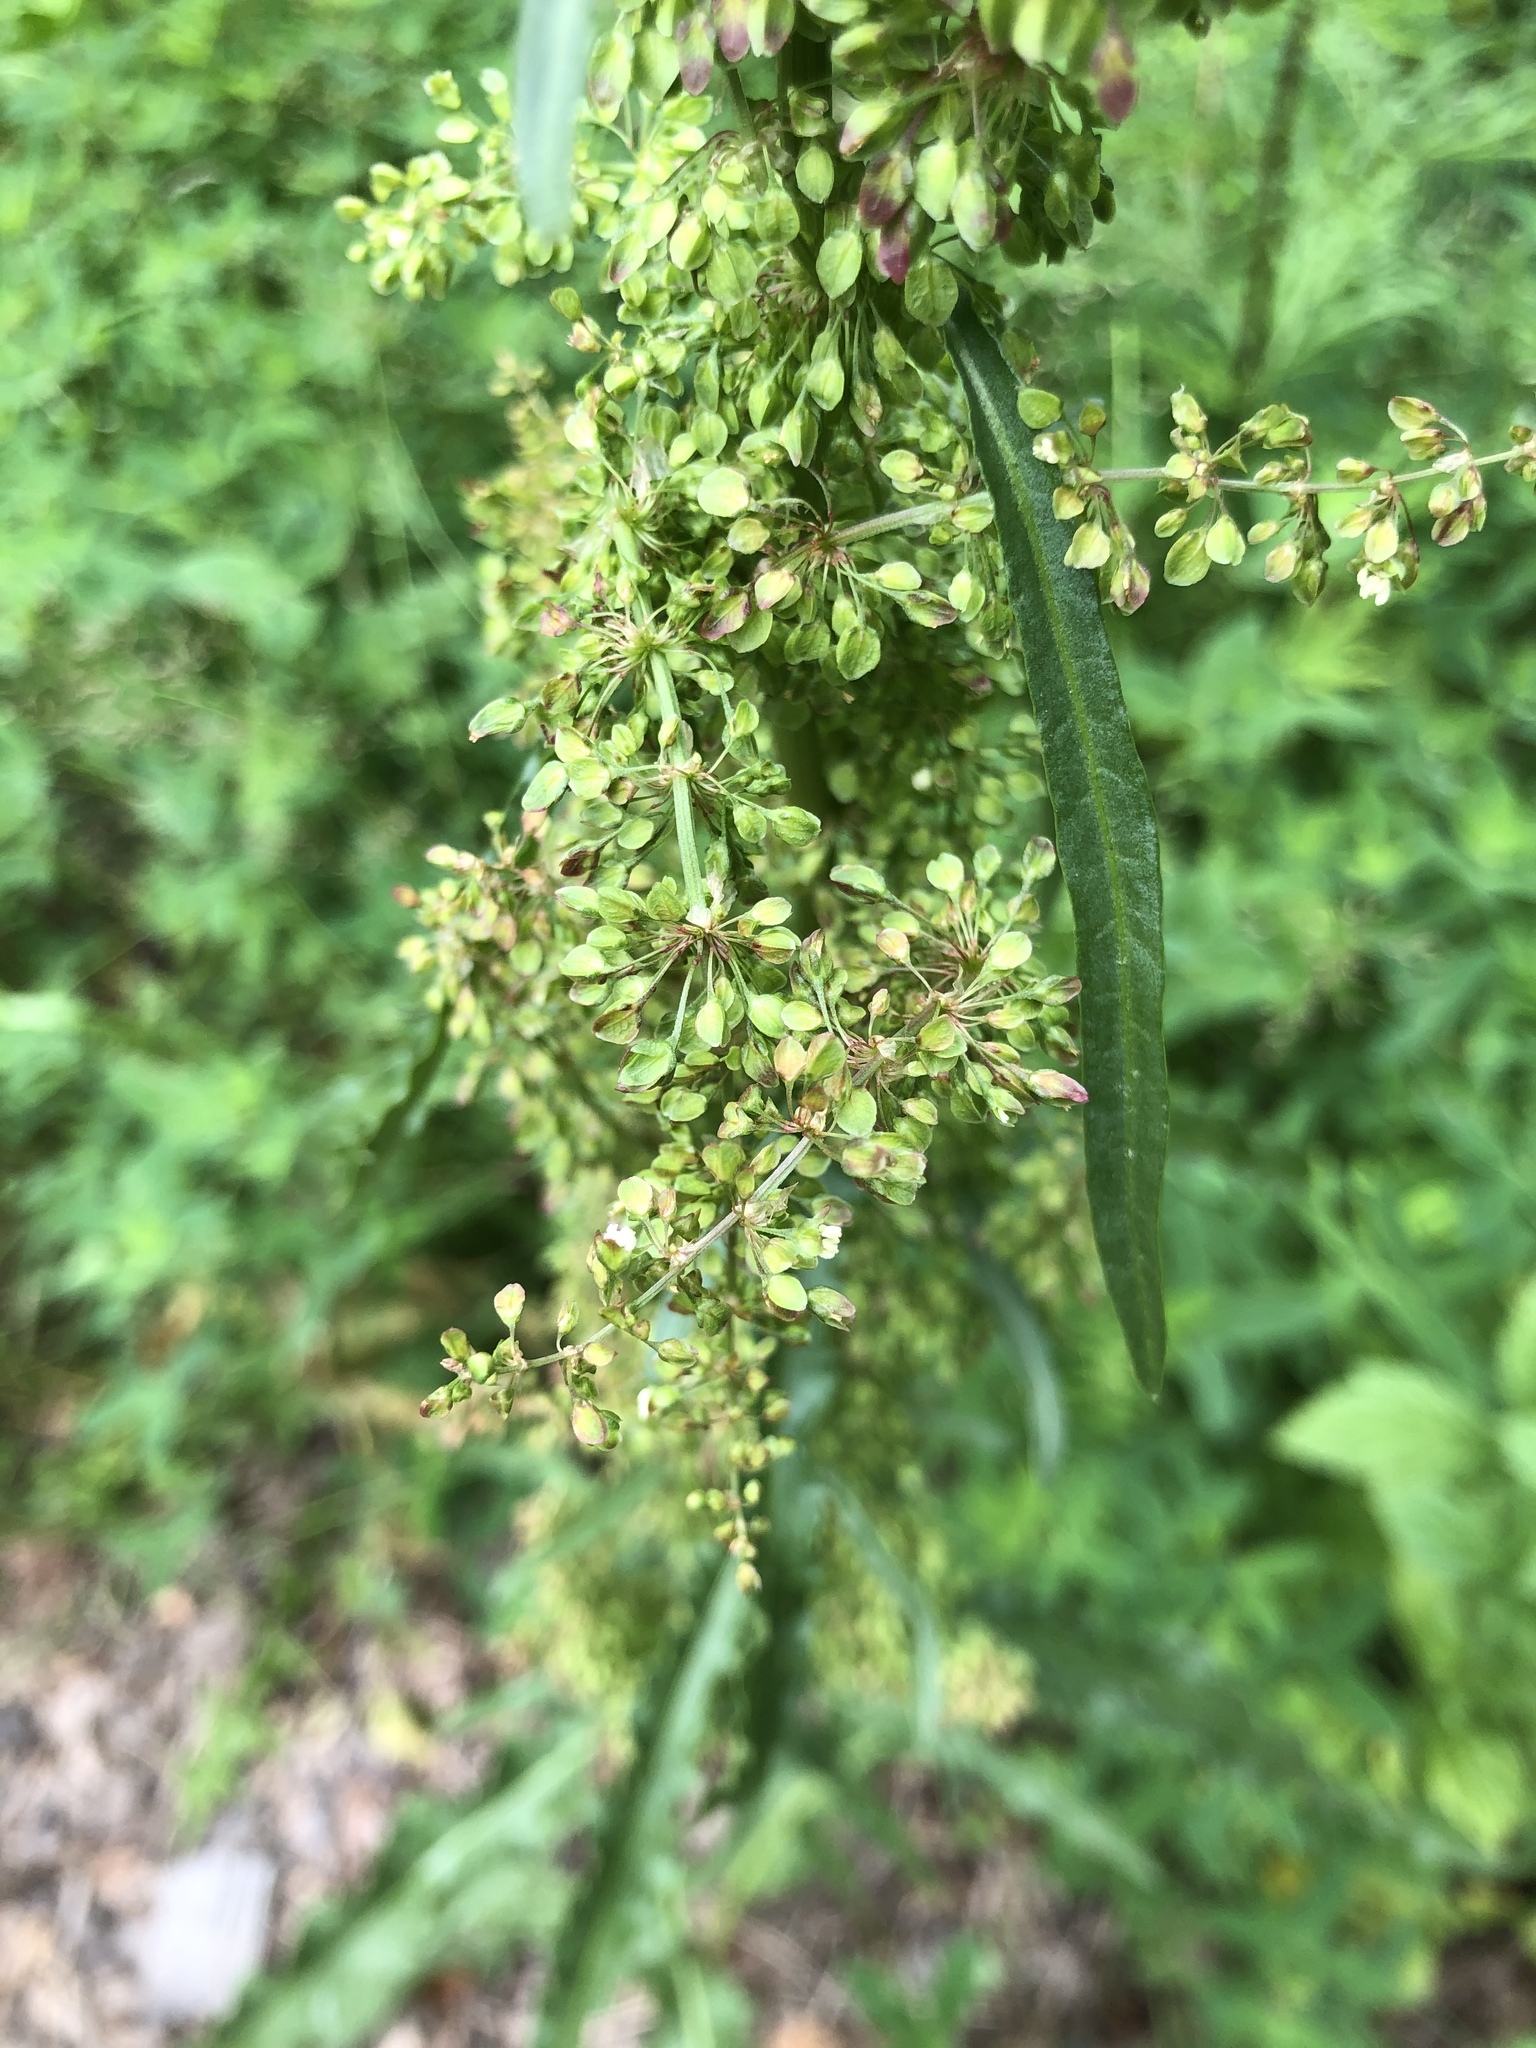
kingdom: Plantae
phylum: Tracheophyta
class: Magnoliopsida
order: Caryophyllales
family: Polygonaceae
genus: Rumex
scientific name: Rumex pseudonatronatus
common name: Field dock
